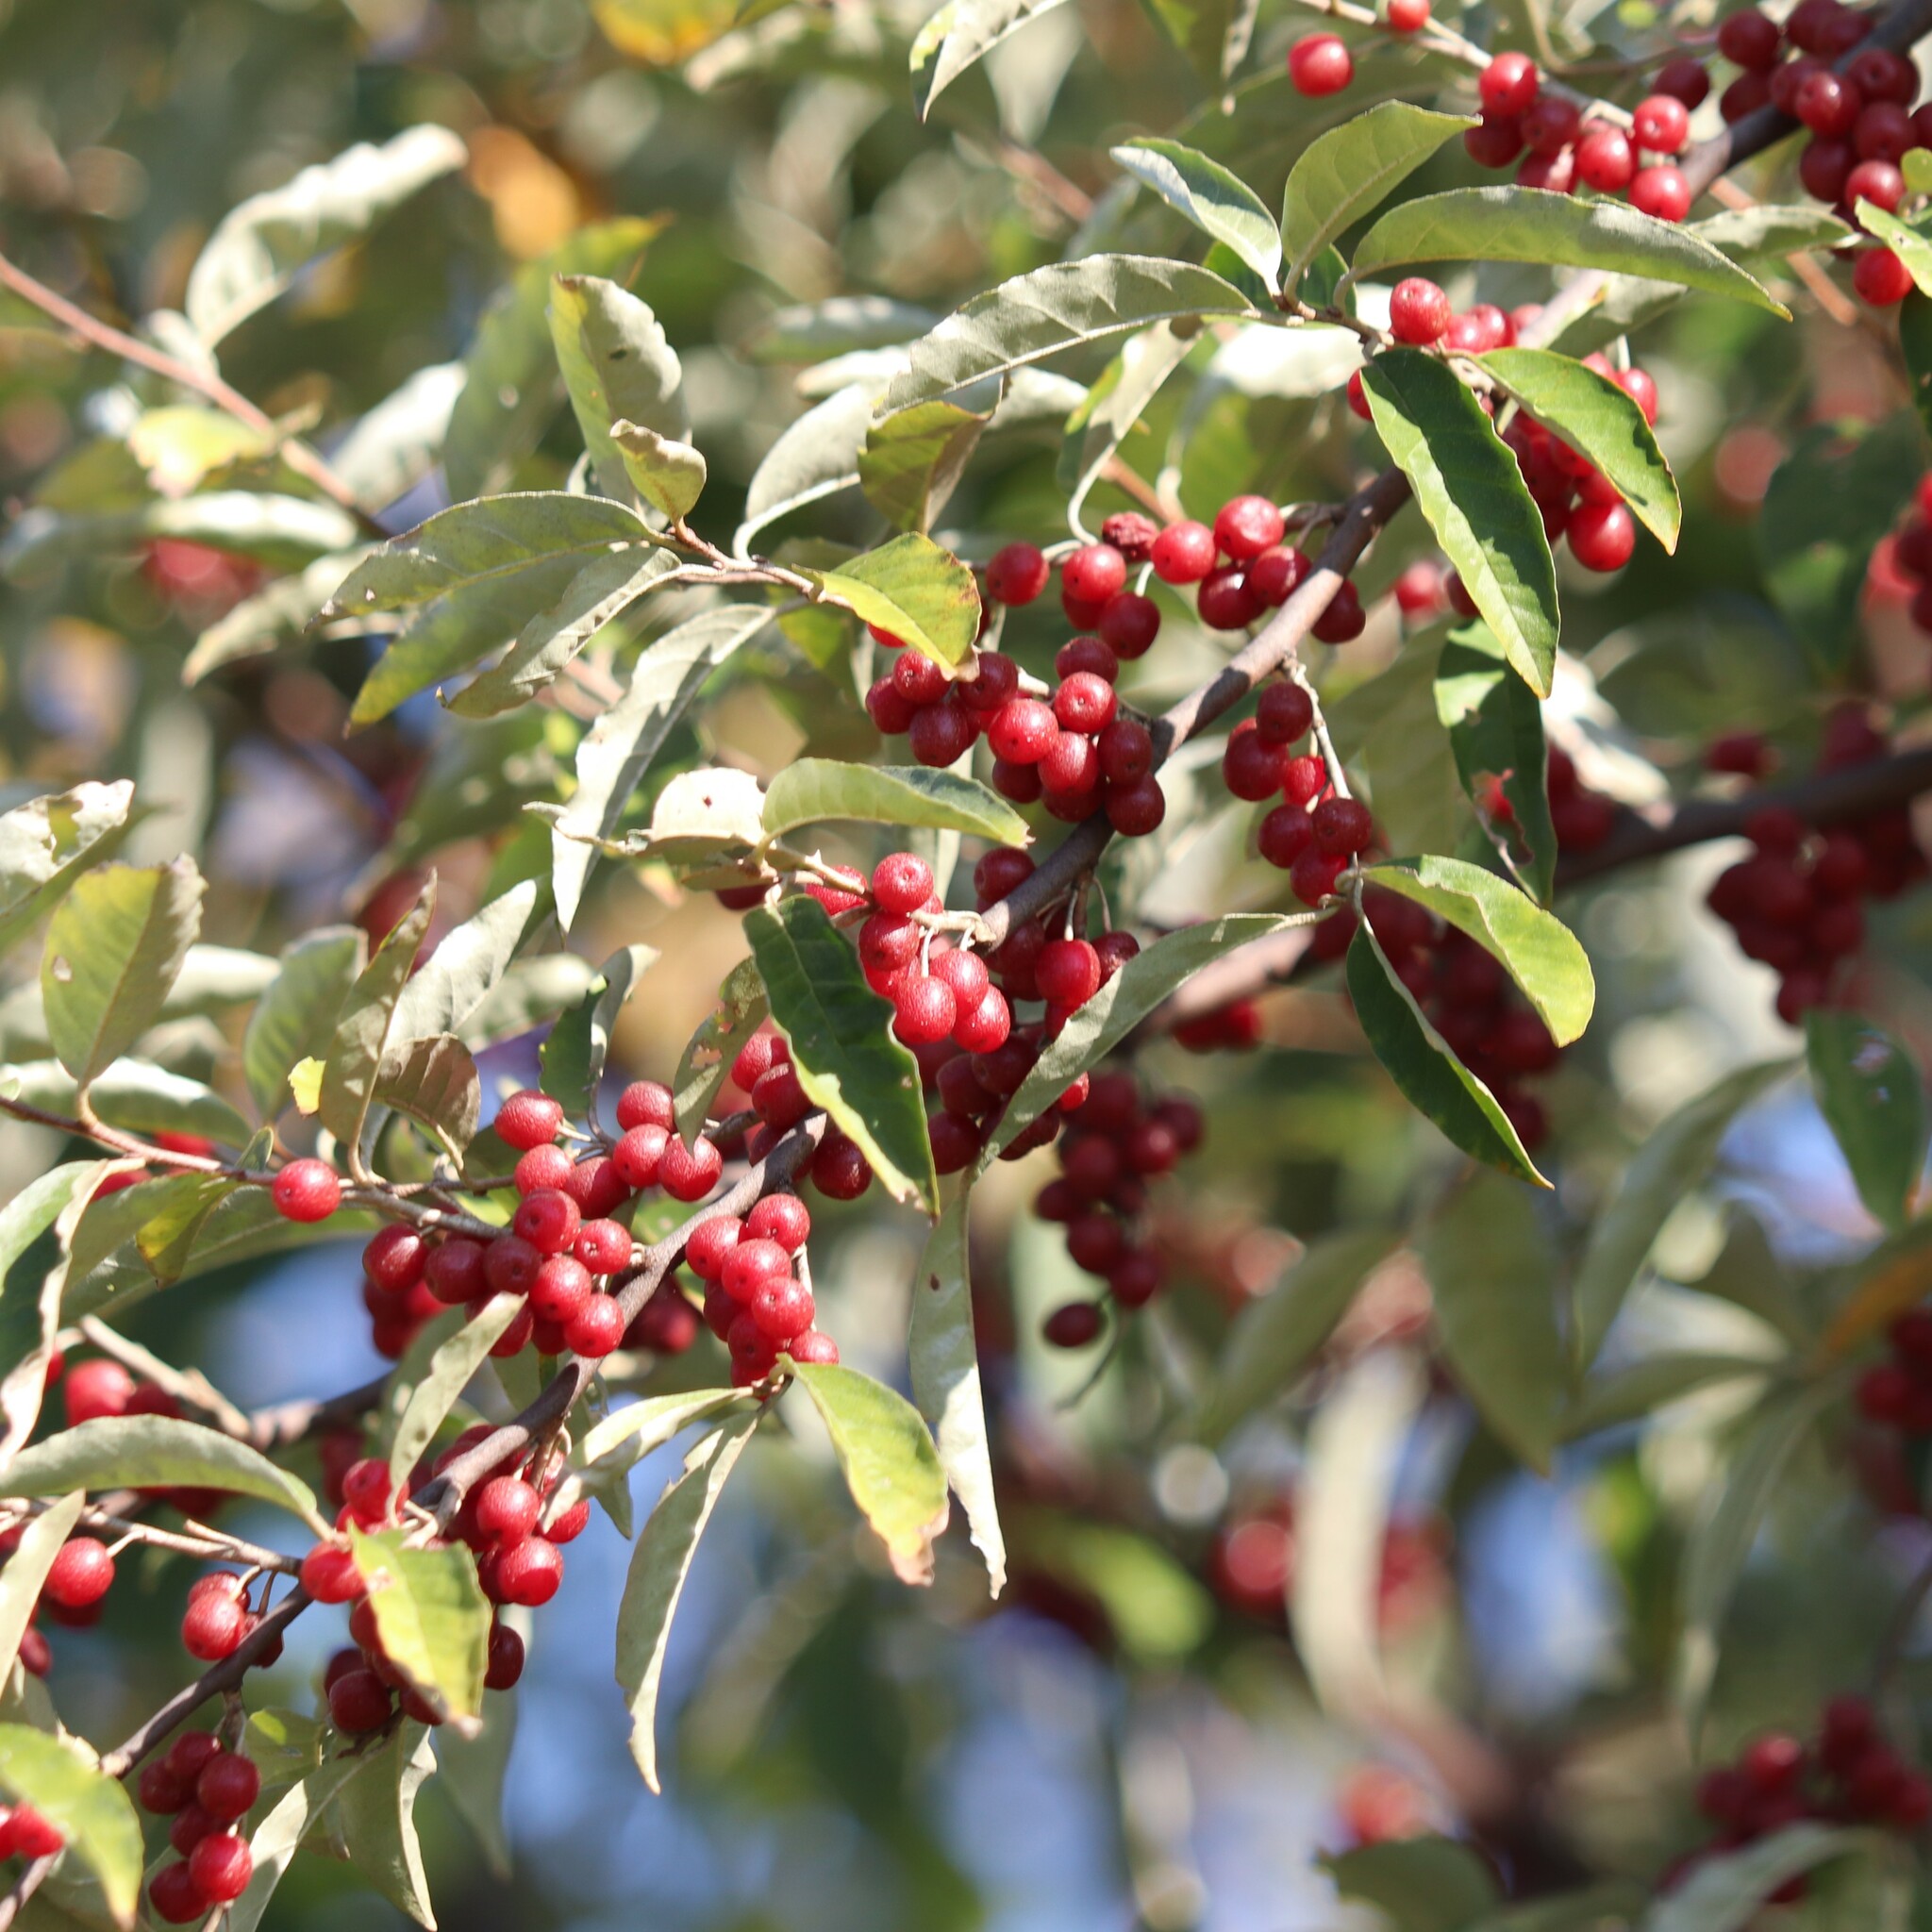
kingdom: Plantae
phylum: Tracheophyta
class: Magnoliopsida
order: Rosales
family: Elaeagnaceae
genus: Elaeagnus
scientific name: Elaeagnus umbellata
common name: Autumn olive
